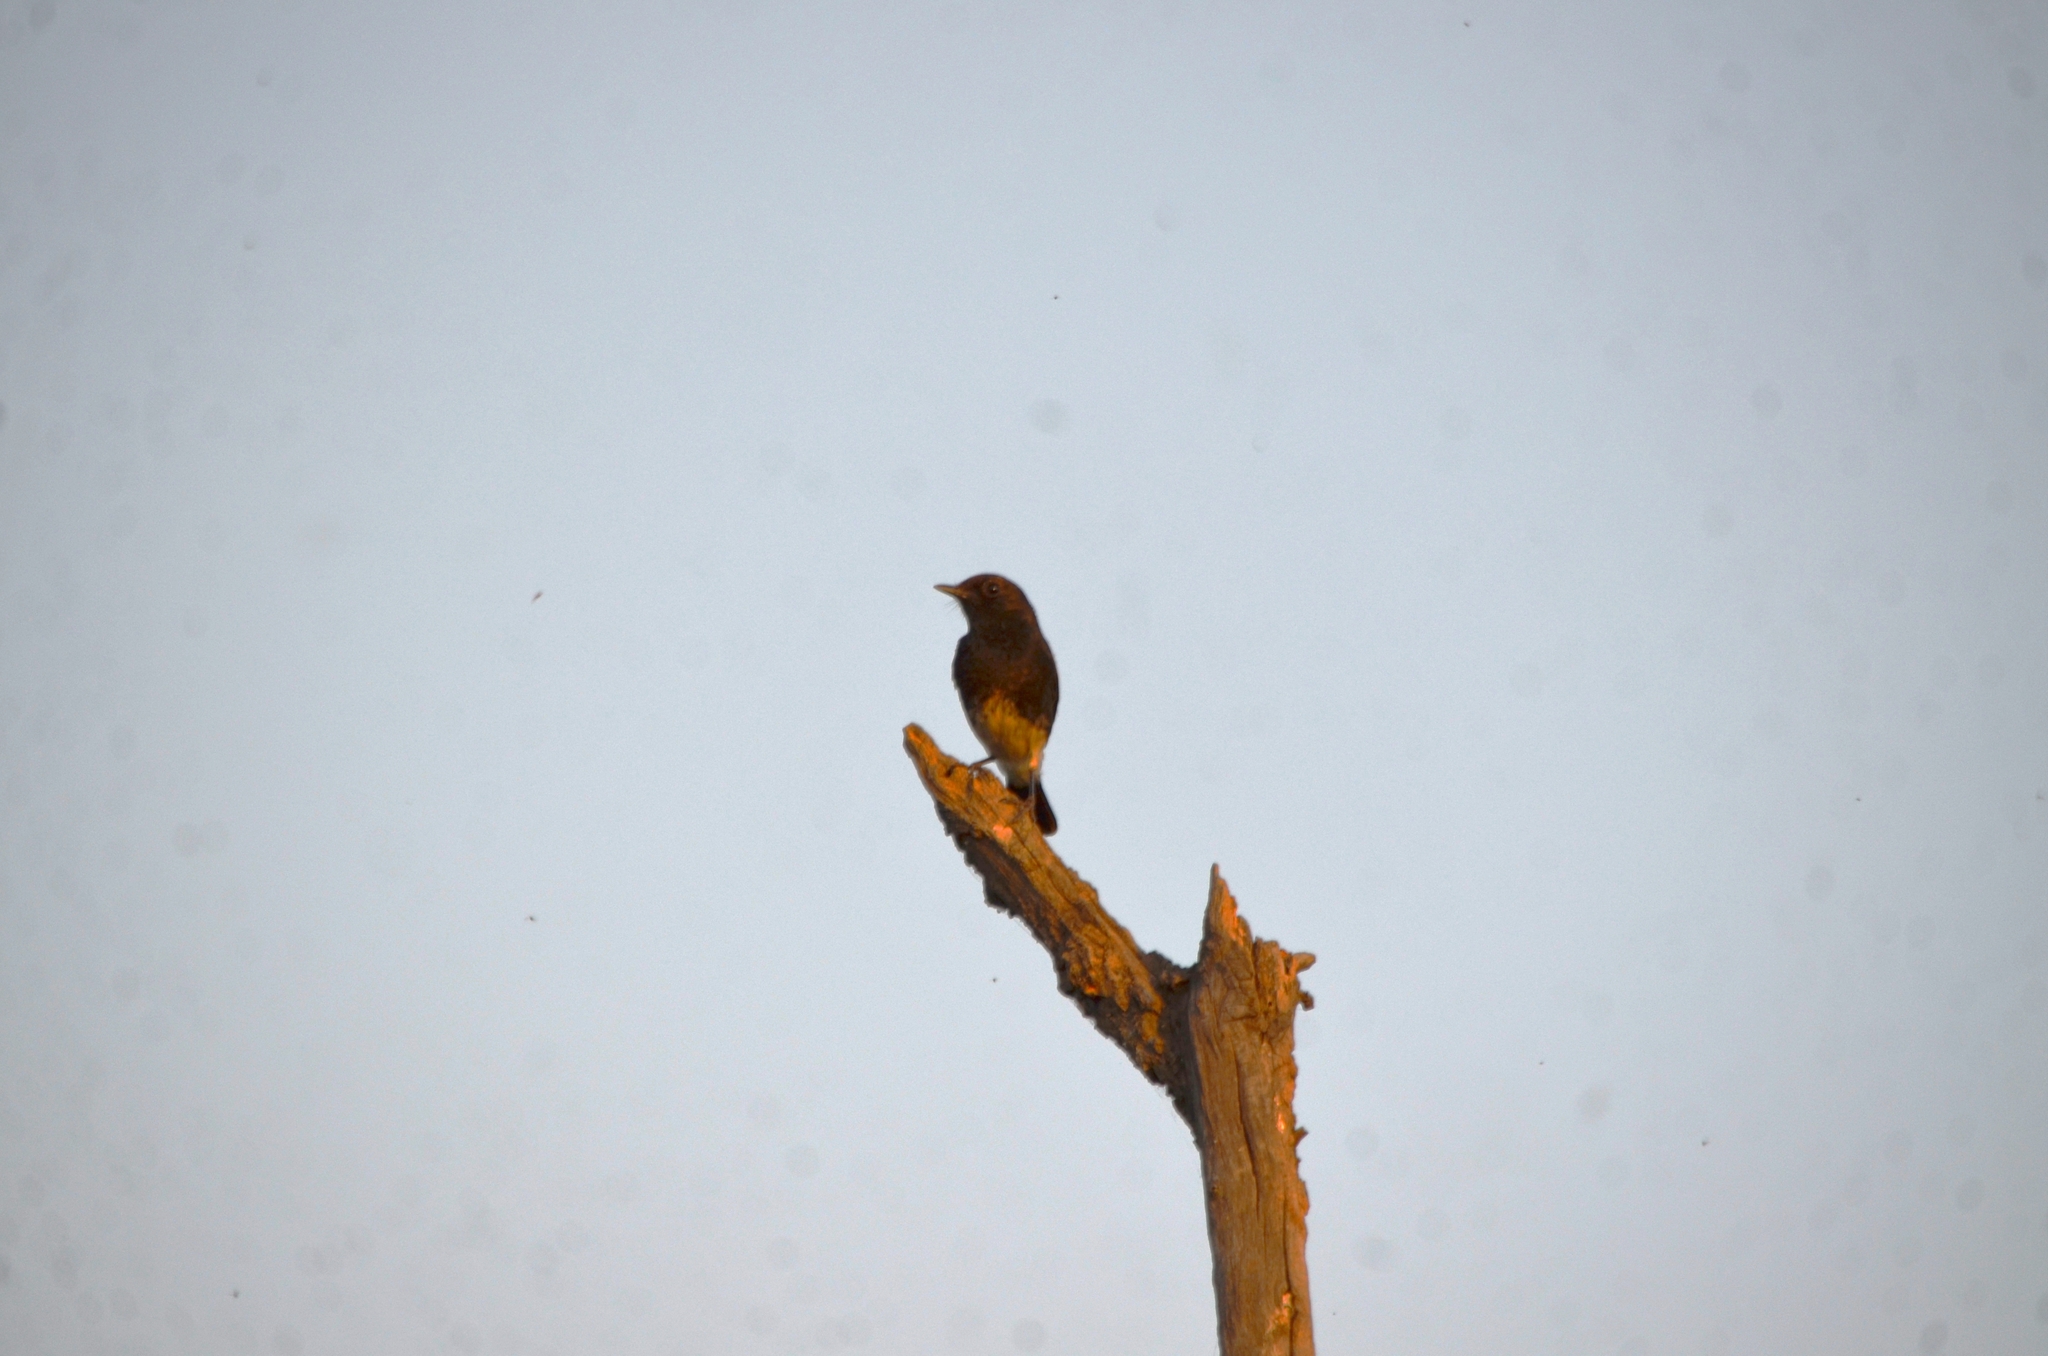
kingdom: Animalia
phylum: Chordata
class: Aves
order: Passeriformes
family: Muscicapidae
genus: Saxicola
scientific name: Saxicola caprata
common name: Pied bush chat
